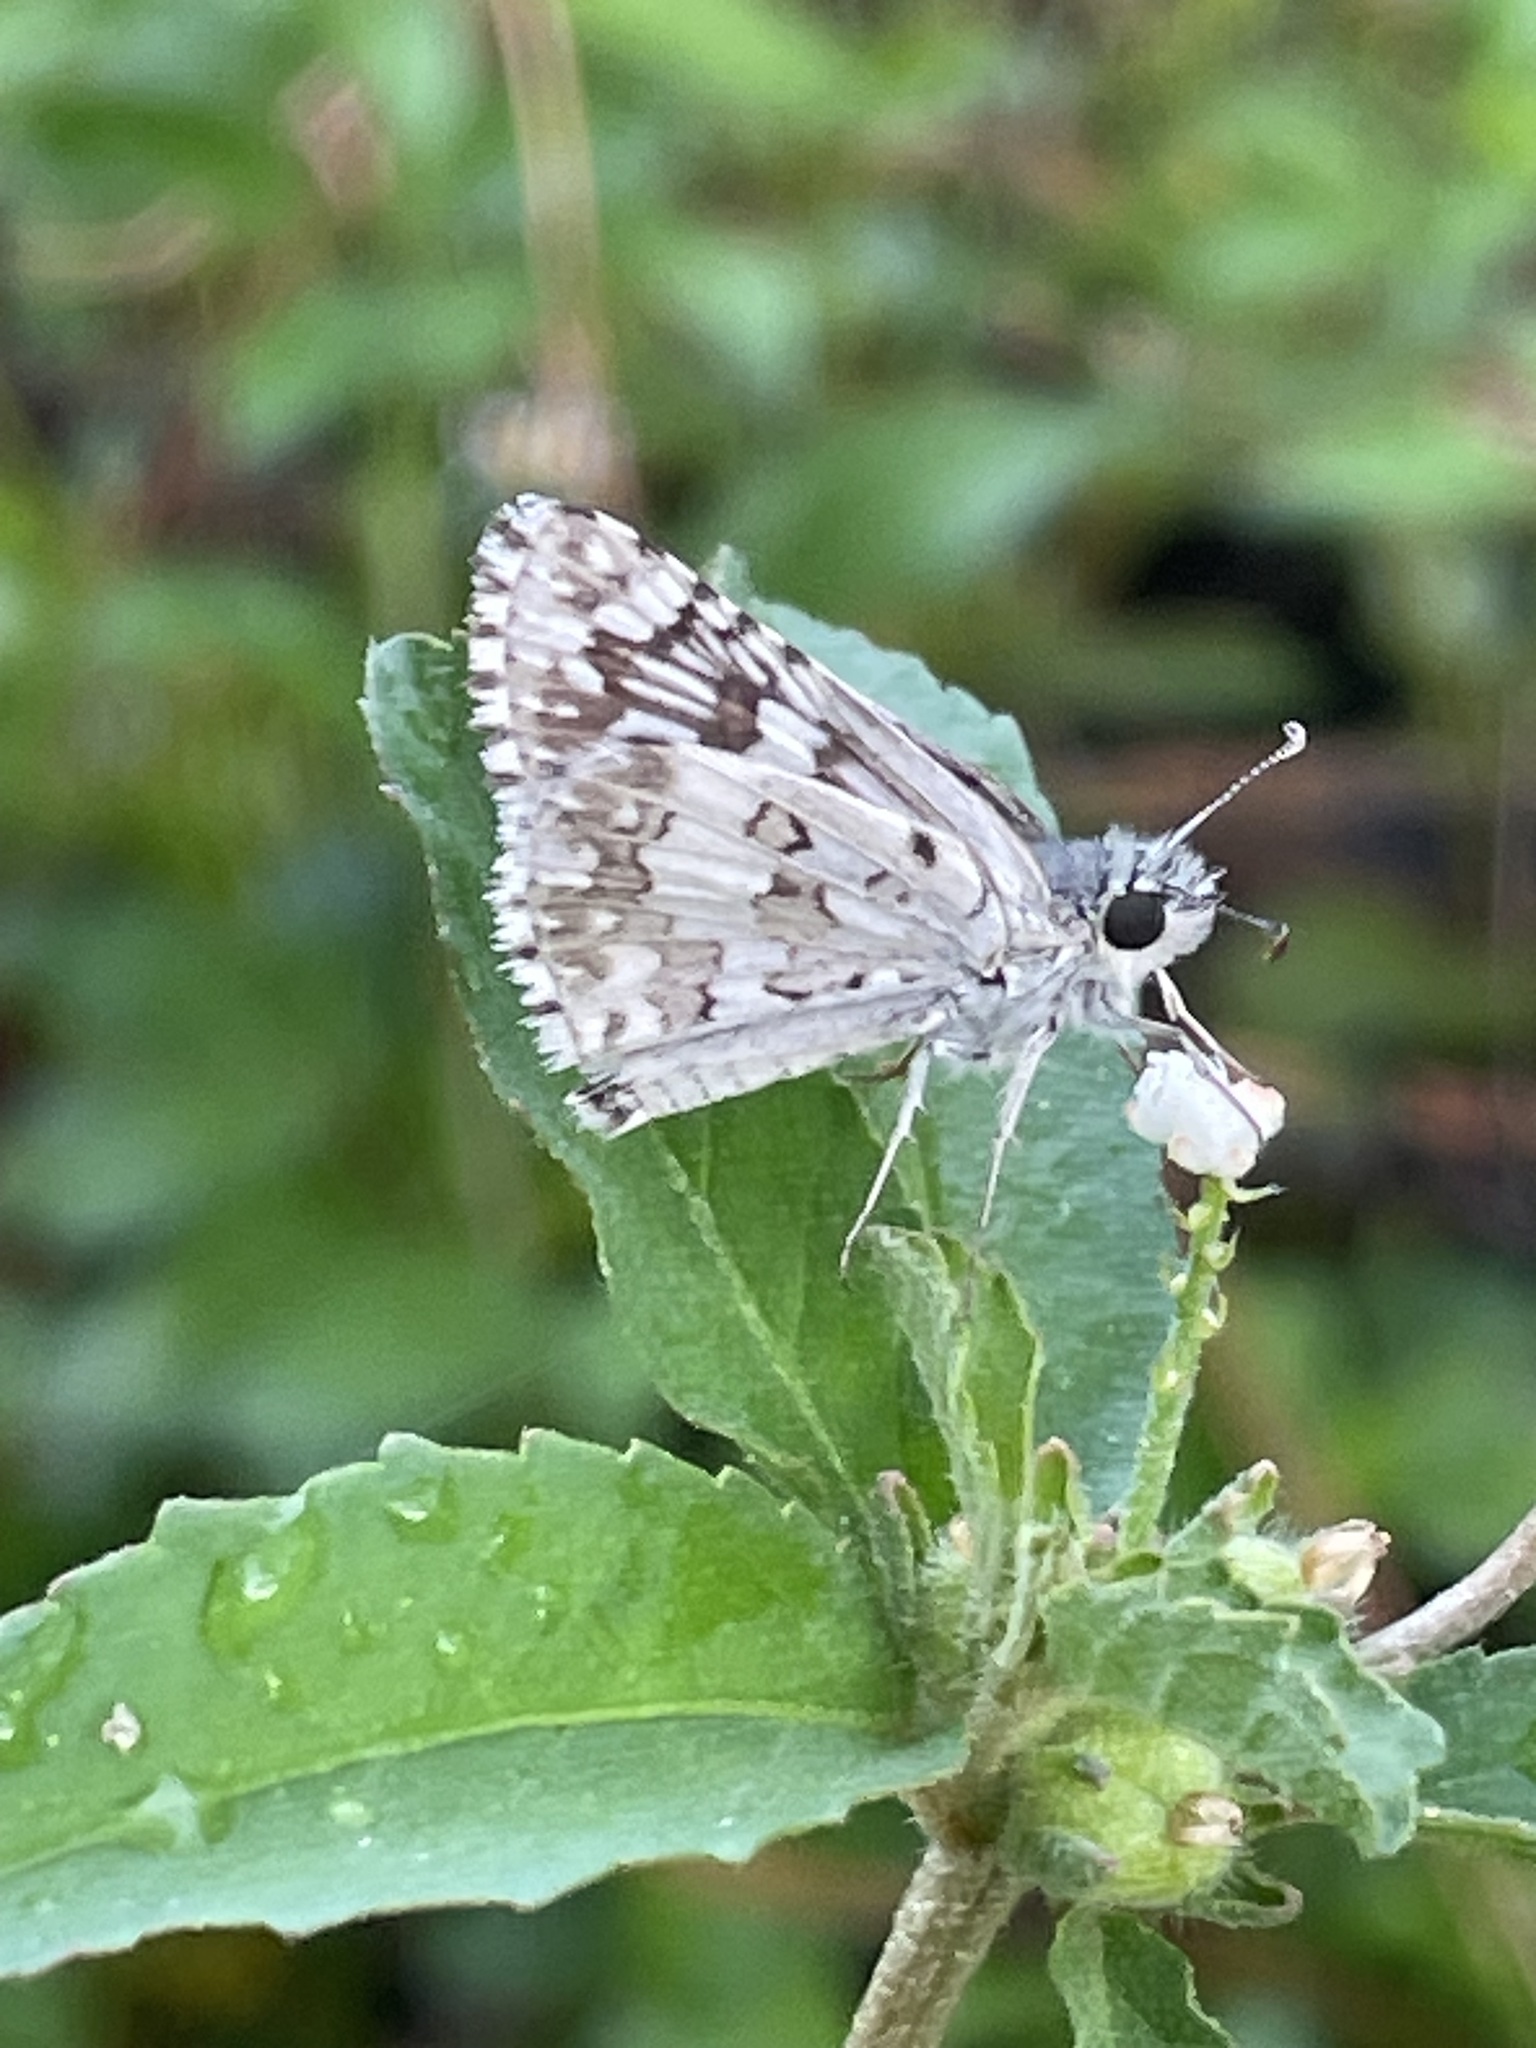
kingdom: Animalia
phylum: Arthropoda
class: Insecta
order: Lepidoptera
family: Hesperiidae
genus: Burnsius
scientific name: Burnsius albezens
